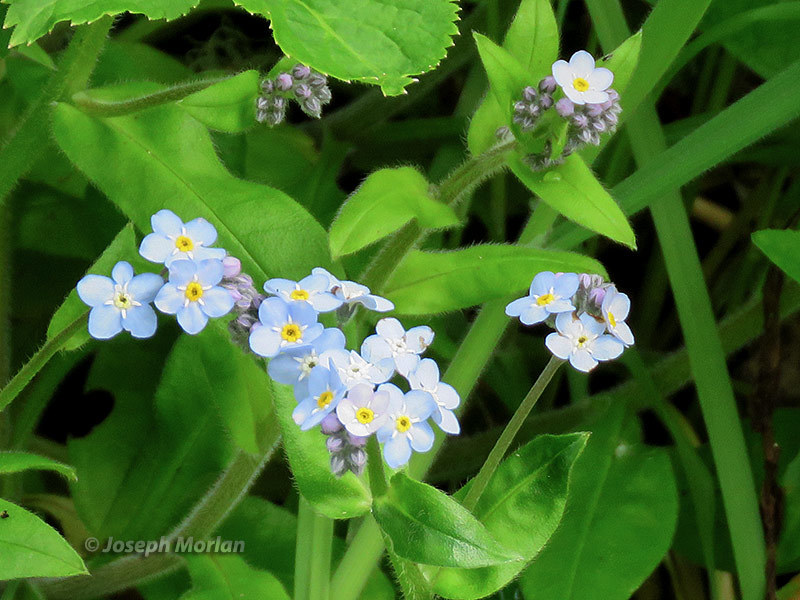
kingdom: Plantae
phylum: Tracheophyta
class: Magnoliopsida
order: Boraginales
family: Boraginaceae
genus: Myosotis
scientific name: Myosotis latifolia
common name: Broadleaf forget-me-not
